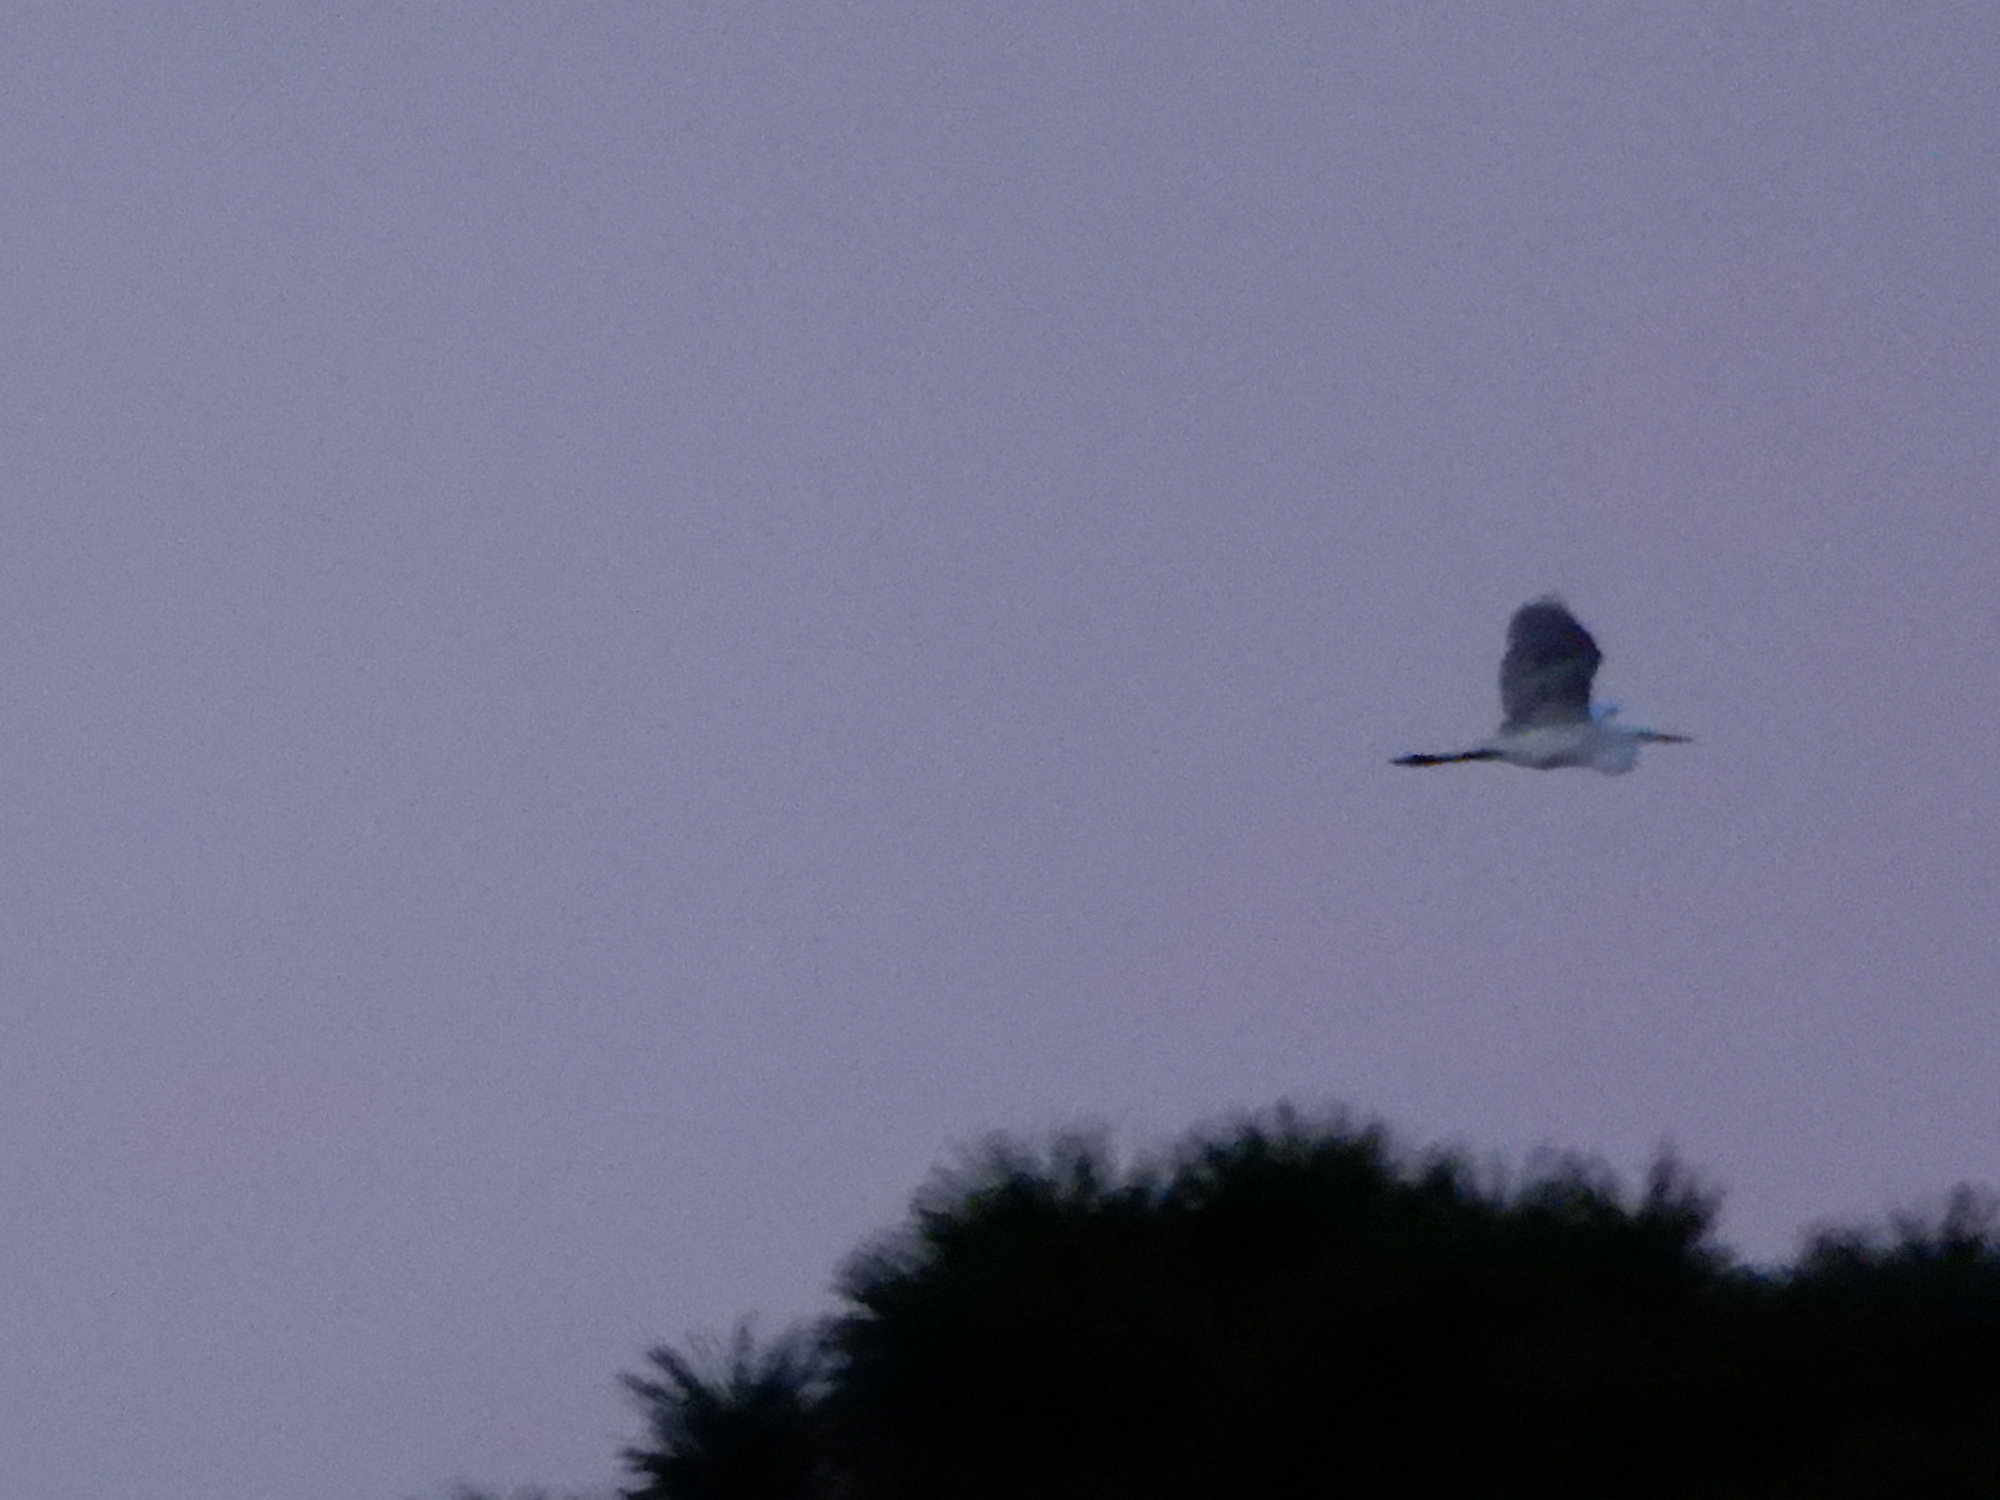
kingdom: Animalia
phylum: Chordata
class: Aves
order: Pelecaniformes
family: Ardeidae
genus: Ardea
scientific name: Ardea alba
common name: Great egret
